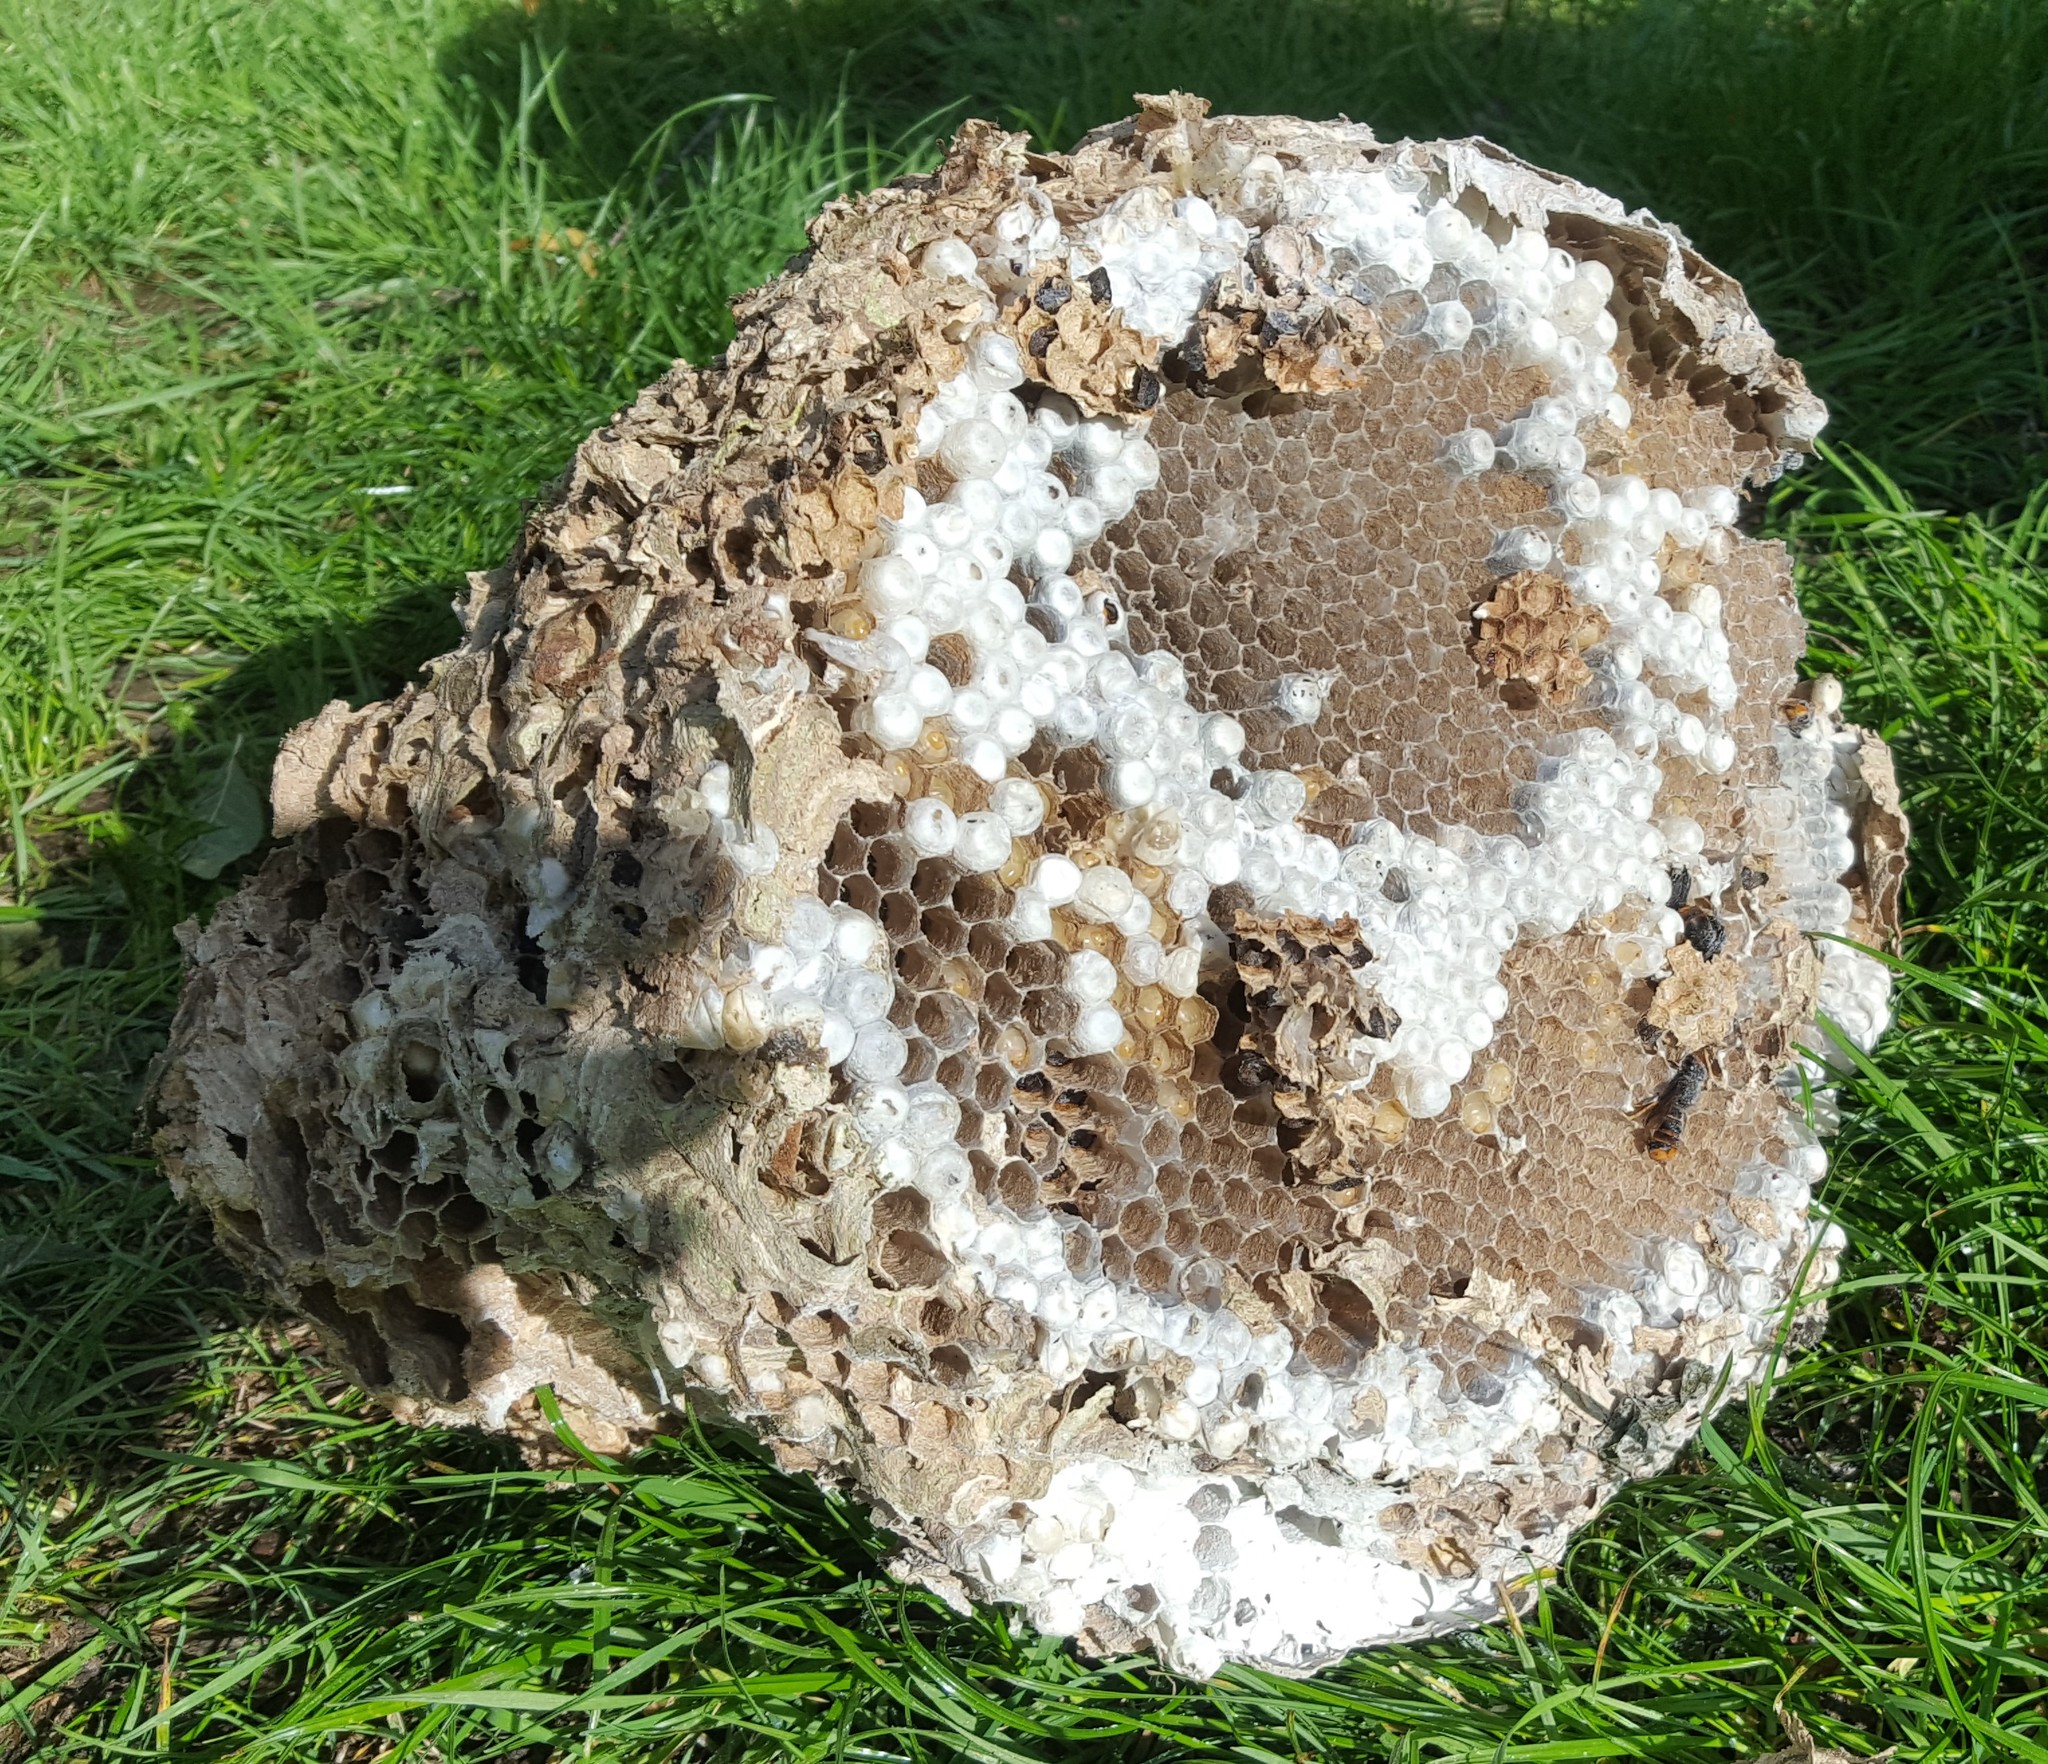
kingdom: Animalia
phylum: Arthropoda
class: Insecta
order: Hymenoptera
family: Vespidae
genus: Vespa
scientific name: Vespa velutina
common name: Asian hornet
